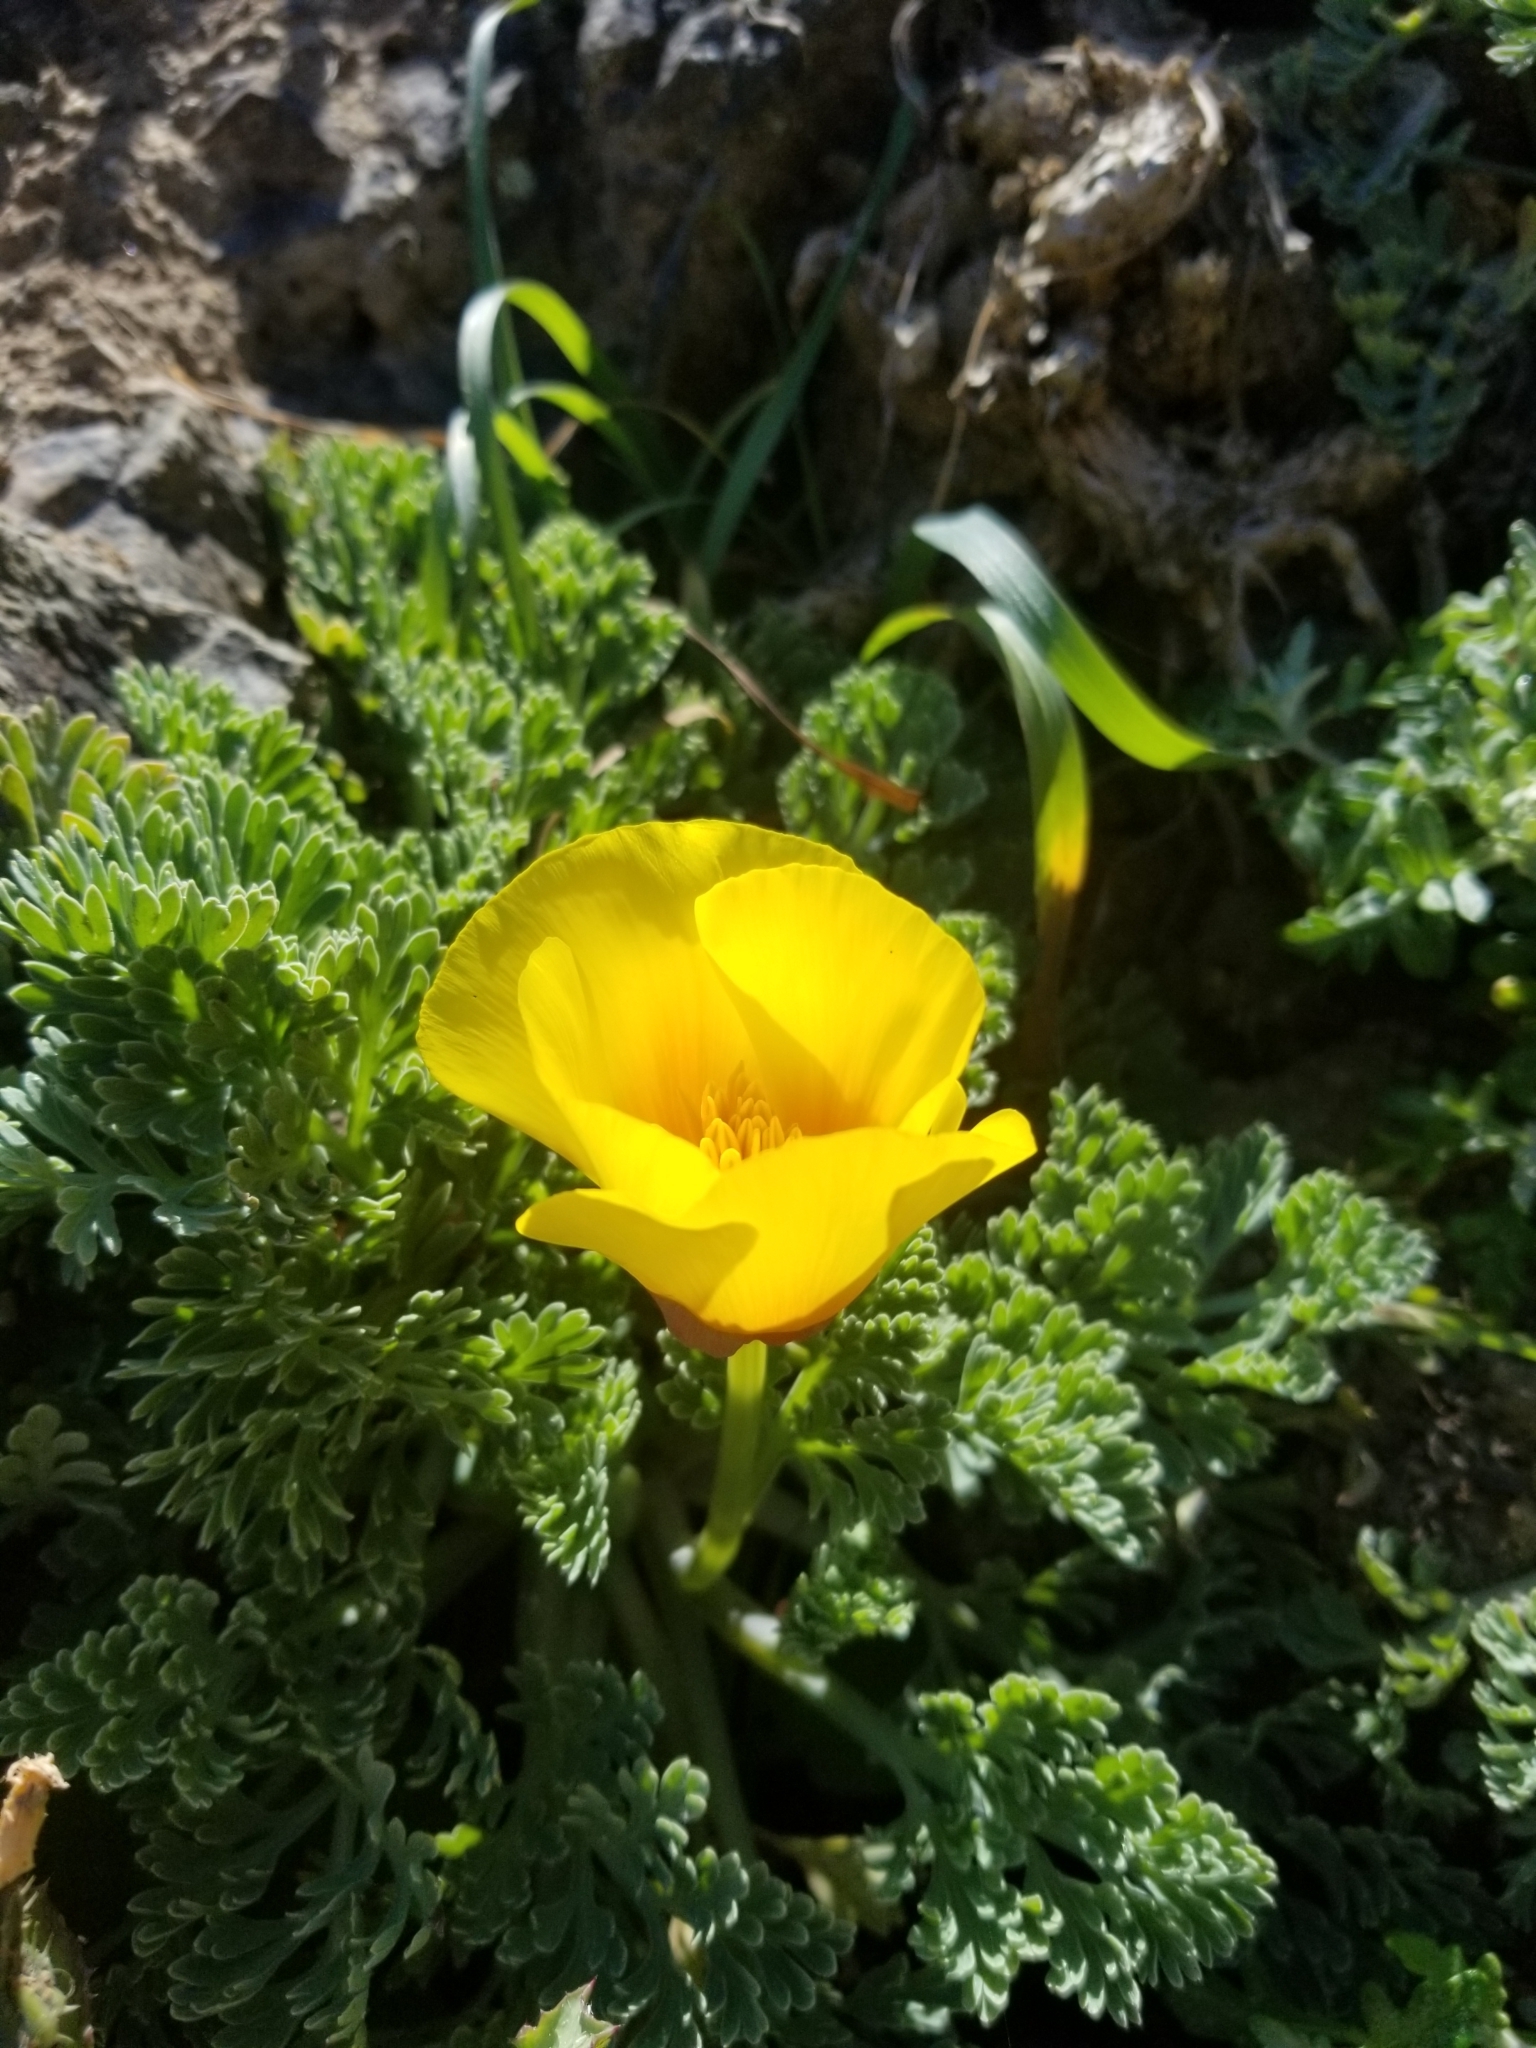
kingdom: Plantae
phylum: Tracheophyta
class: Magnoliopsida
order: Ranunculales
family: Papaveraceae
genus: Eschscholzia
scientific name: Eschscholzia californica
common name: California poppy
